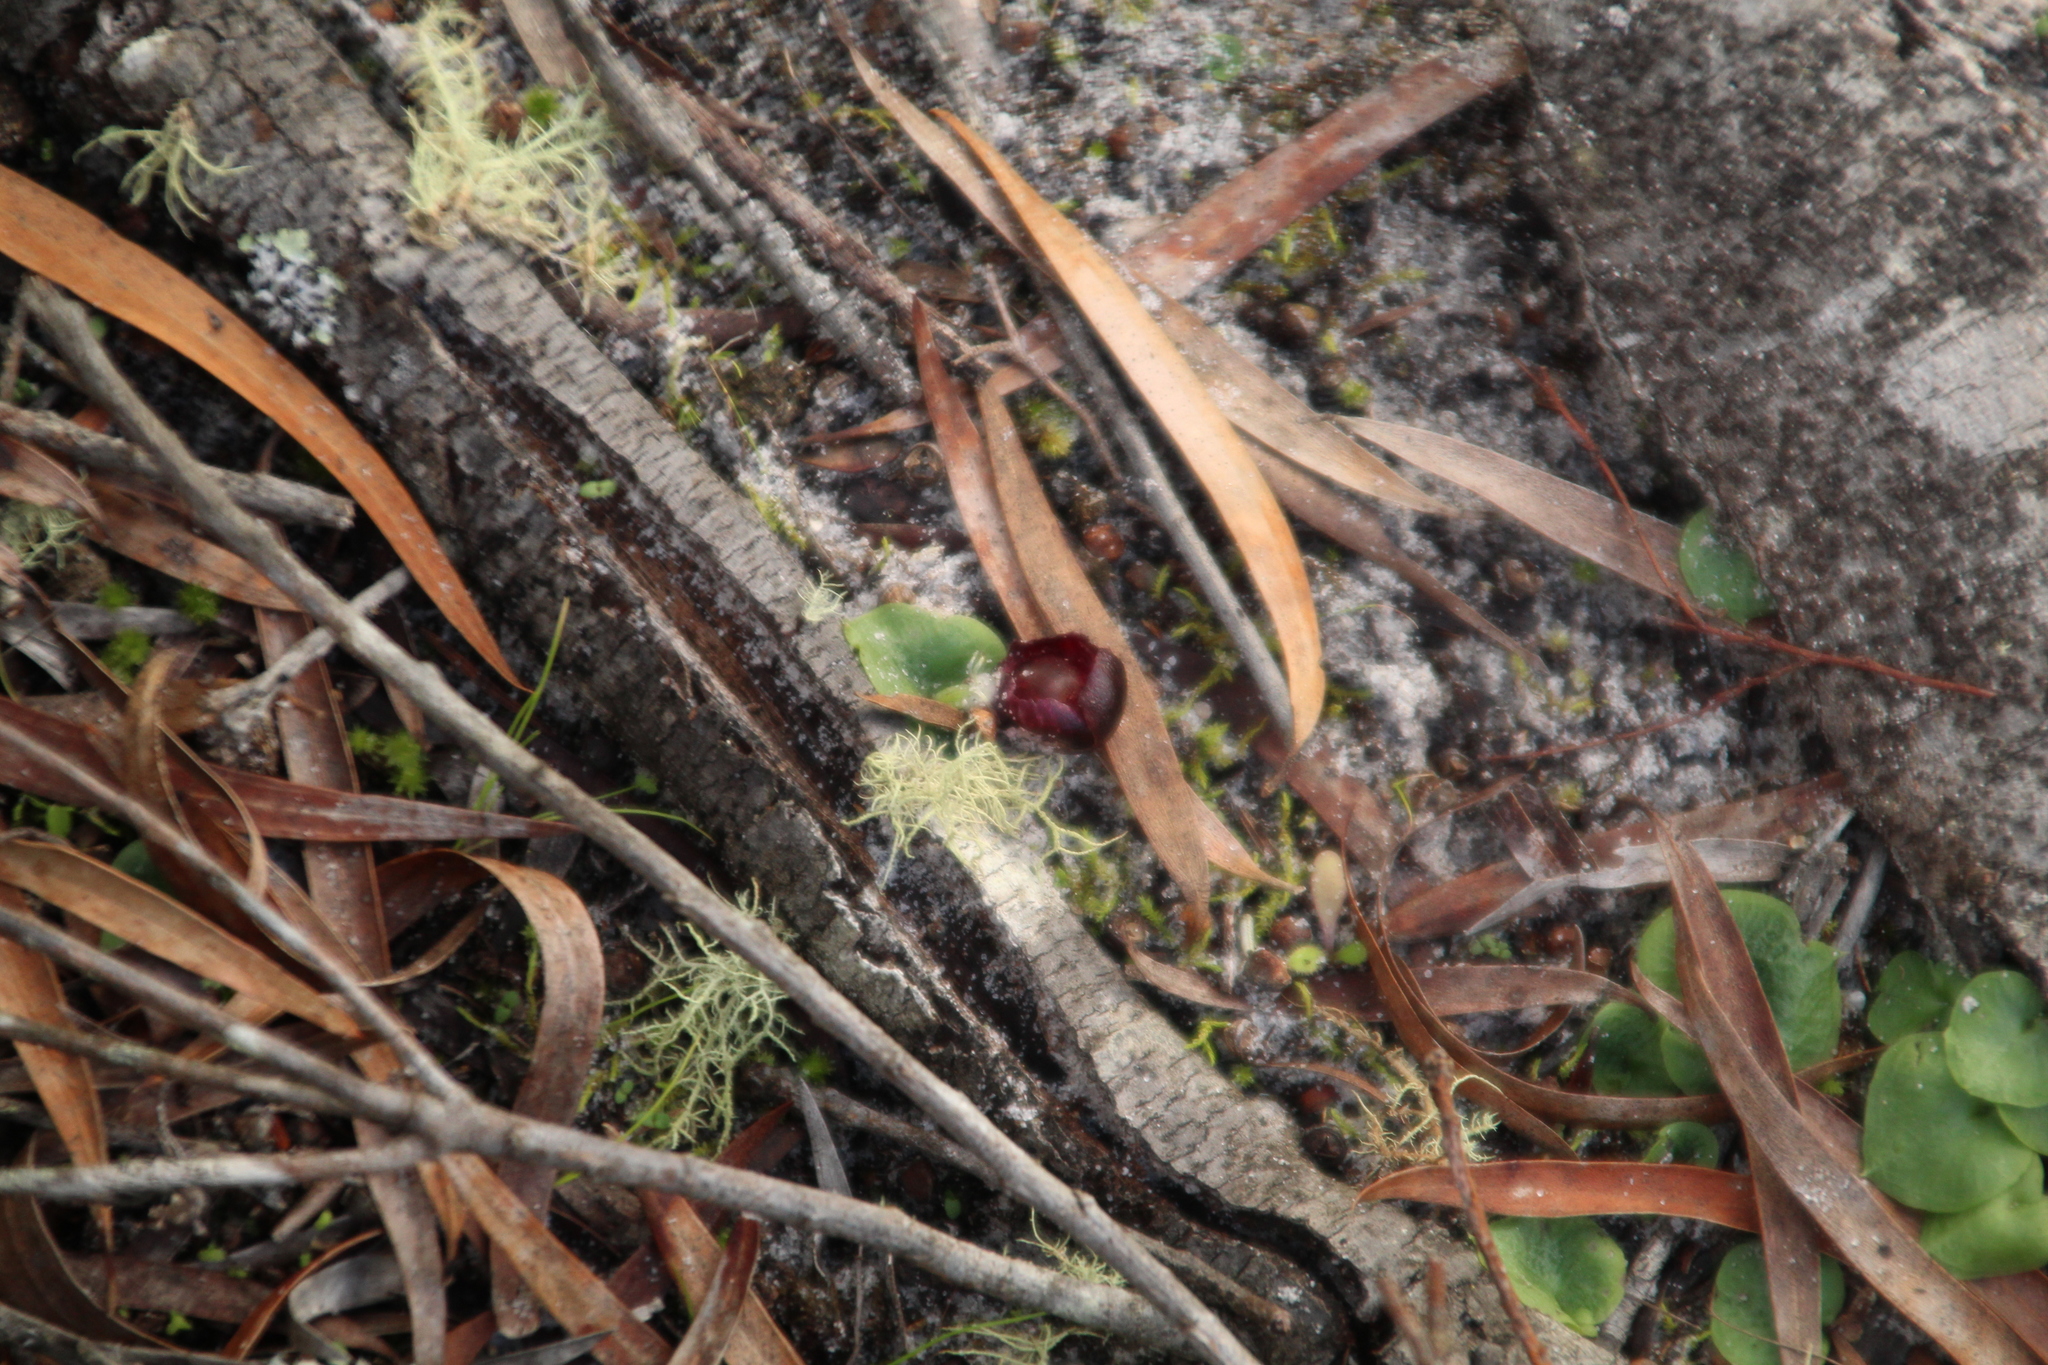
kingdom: Plantae
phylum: Tracheophyta
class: Liliopsida
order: Asparagales
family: Orchidaceae
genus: Corybas
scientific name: Corybas recurvus
